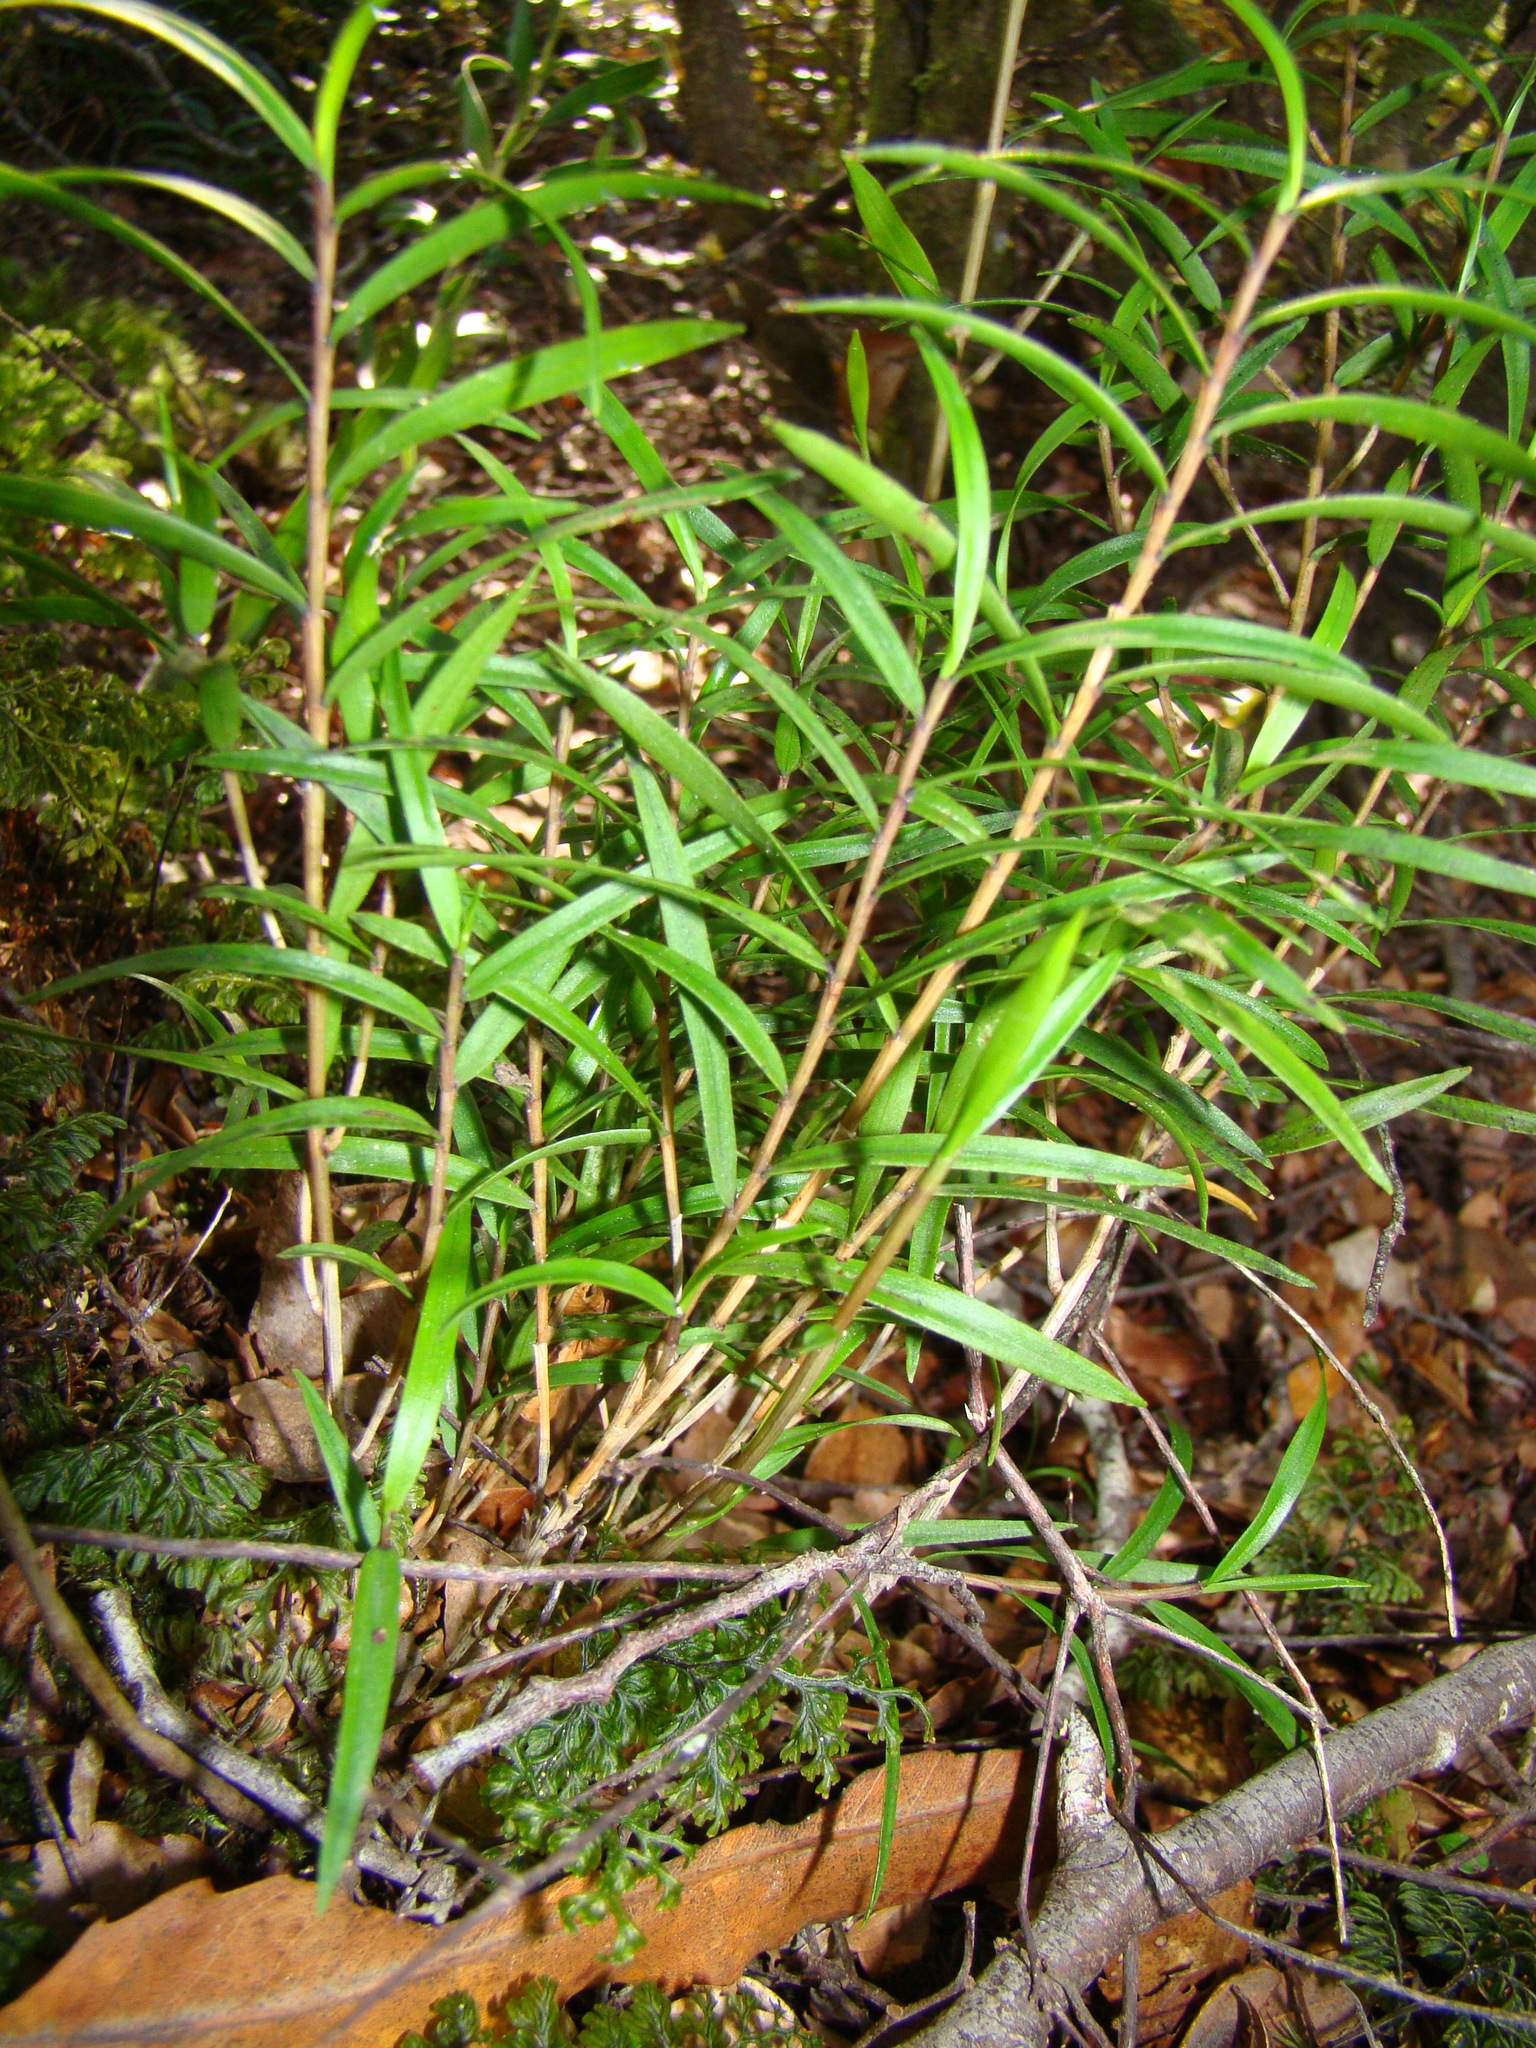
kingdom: Plantae
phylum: Tracheophyta
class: Liliopsida
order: Asparagales
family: Orchidaceae
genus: Dendrobium
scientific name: Dendrobium cunninghamii
